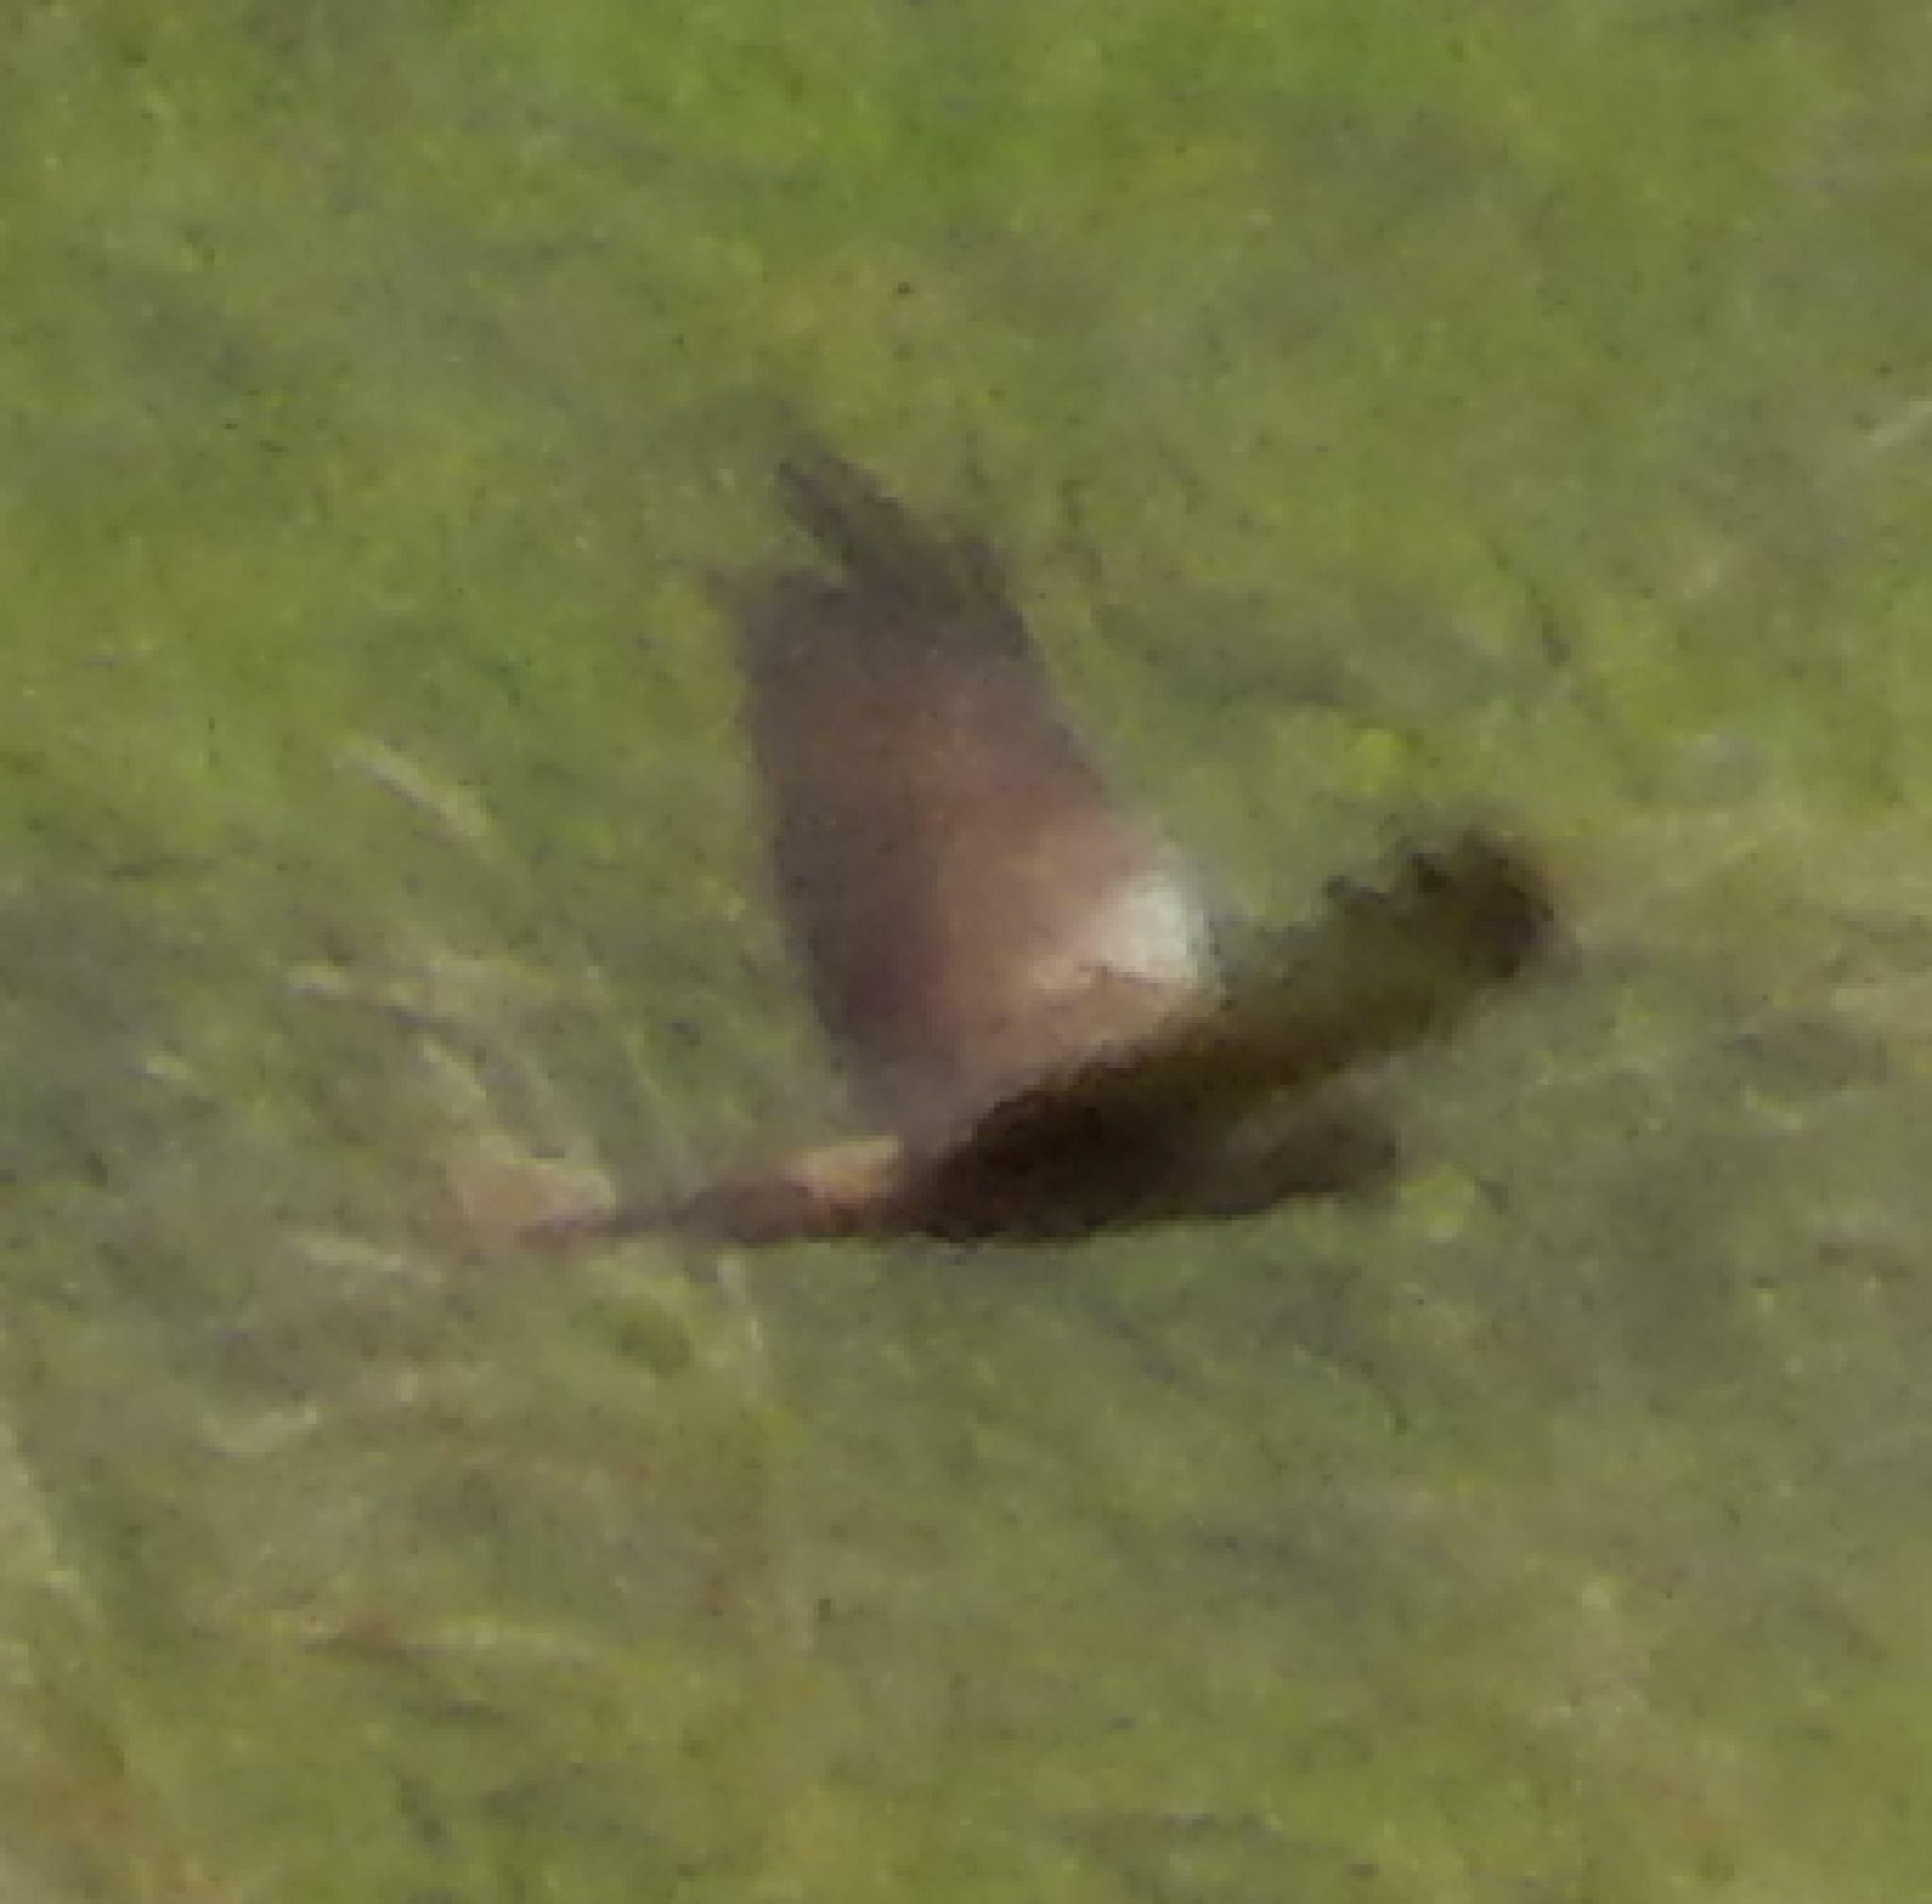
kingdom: Animalia
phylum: Chordata
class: Aves
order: Accipitriformes
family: Accipitridae
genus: Circus
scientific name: Circus ranivorus
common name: African marsh-harrier
